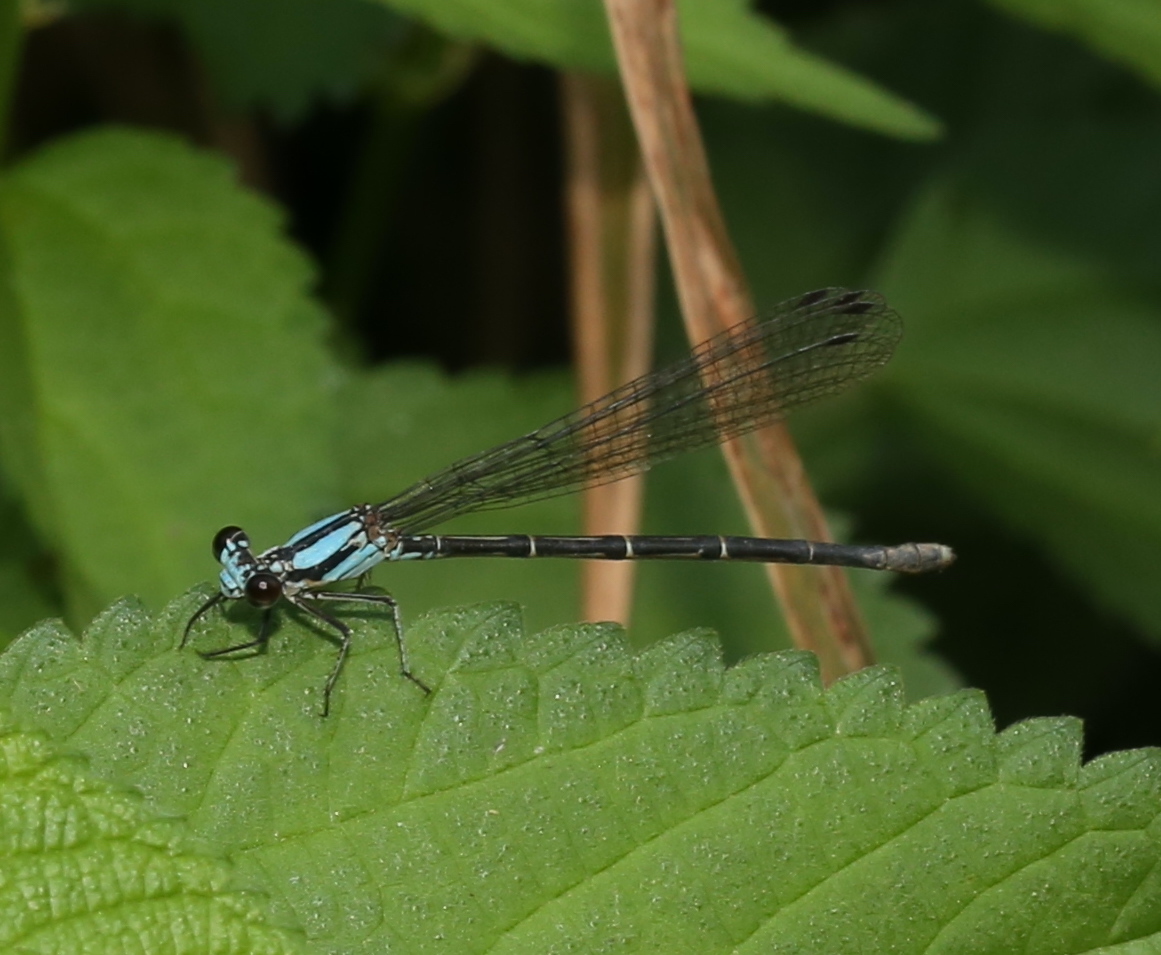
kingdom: Animalia
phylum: Arthropoda
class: Insecta
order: Odonata
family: Coenagrionidae
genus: Argia
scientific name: Argia tibialis
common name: Blue-tipped dancer
